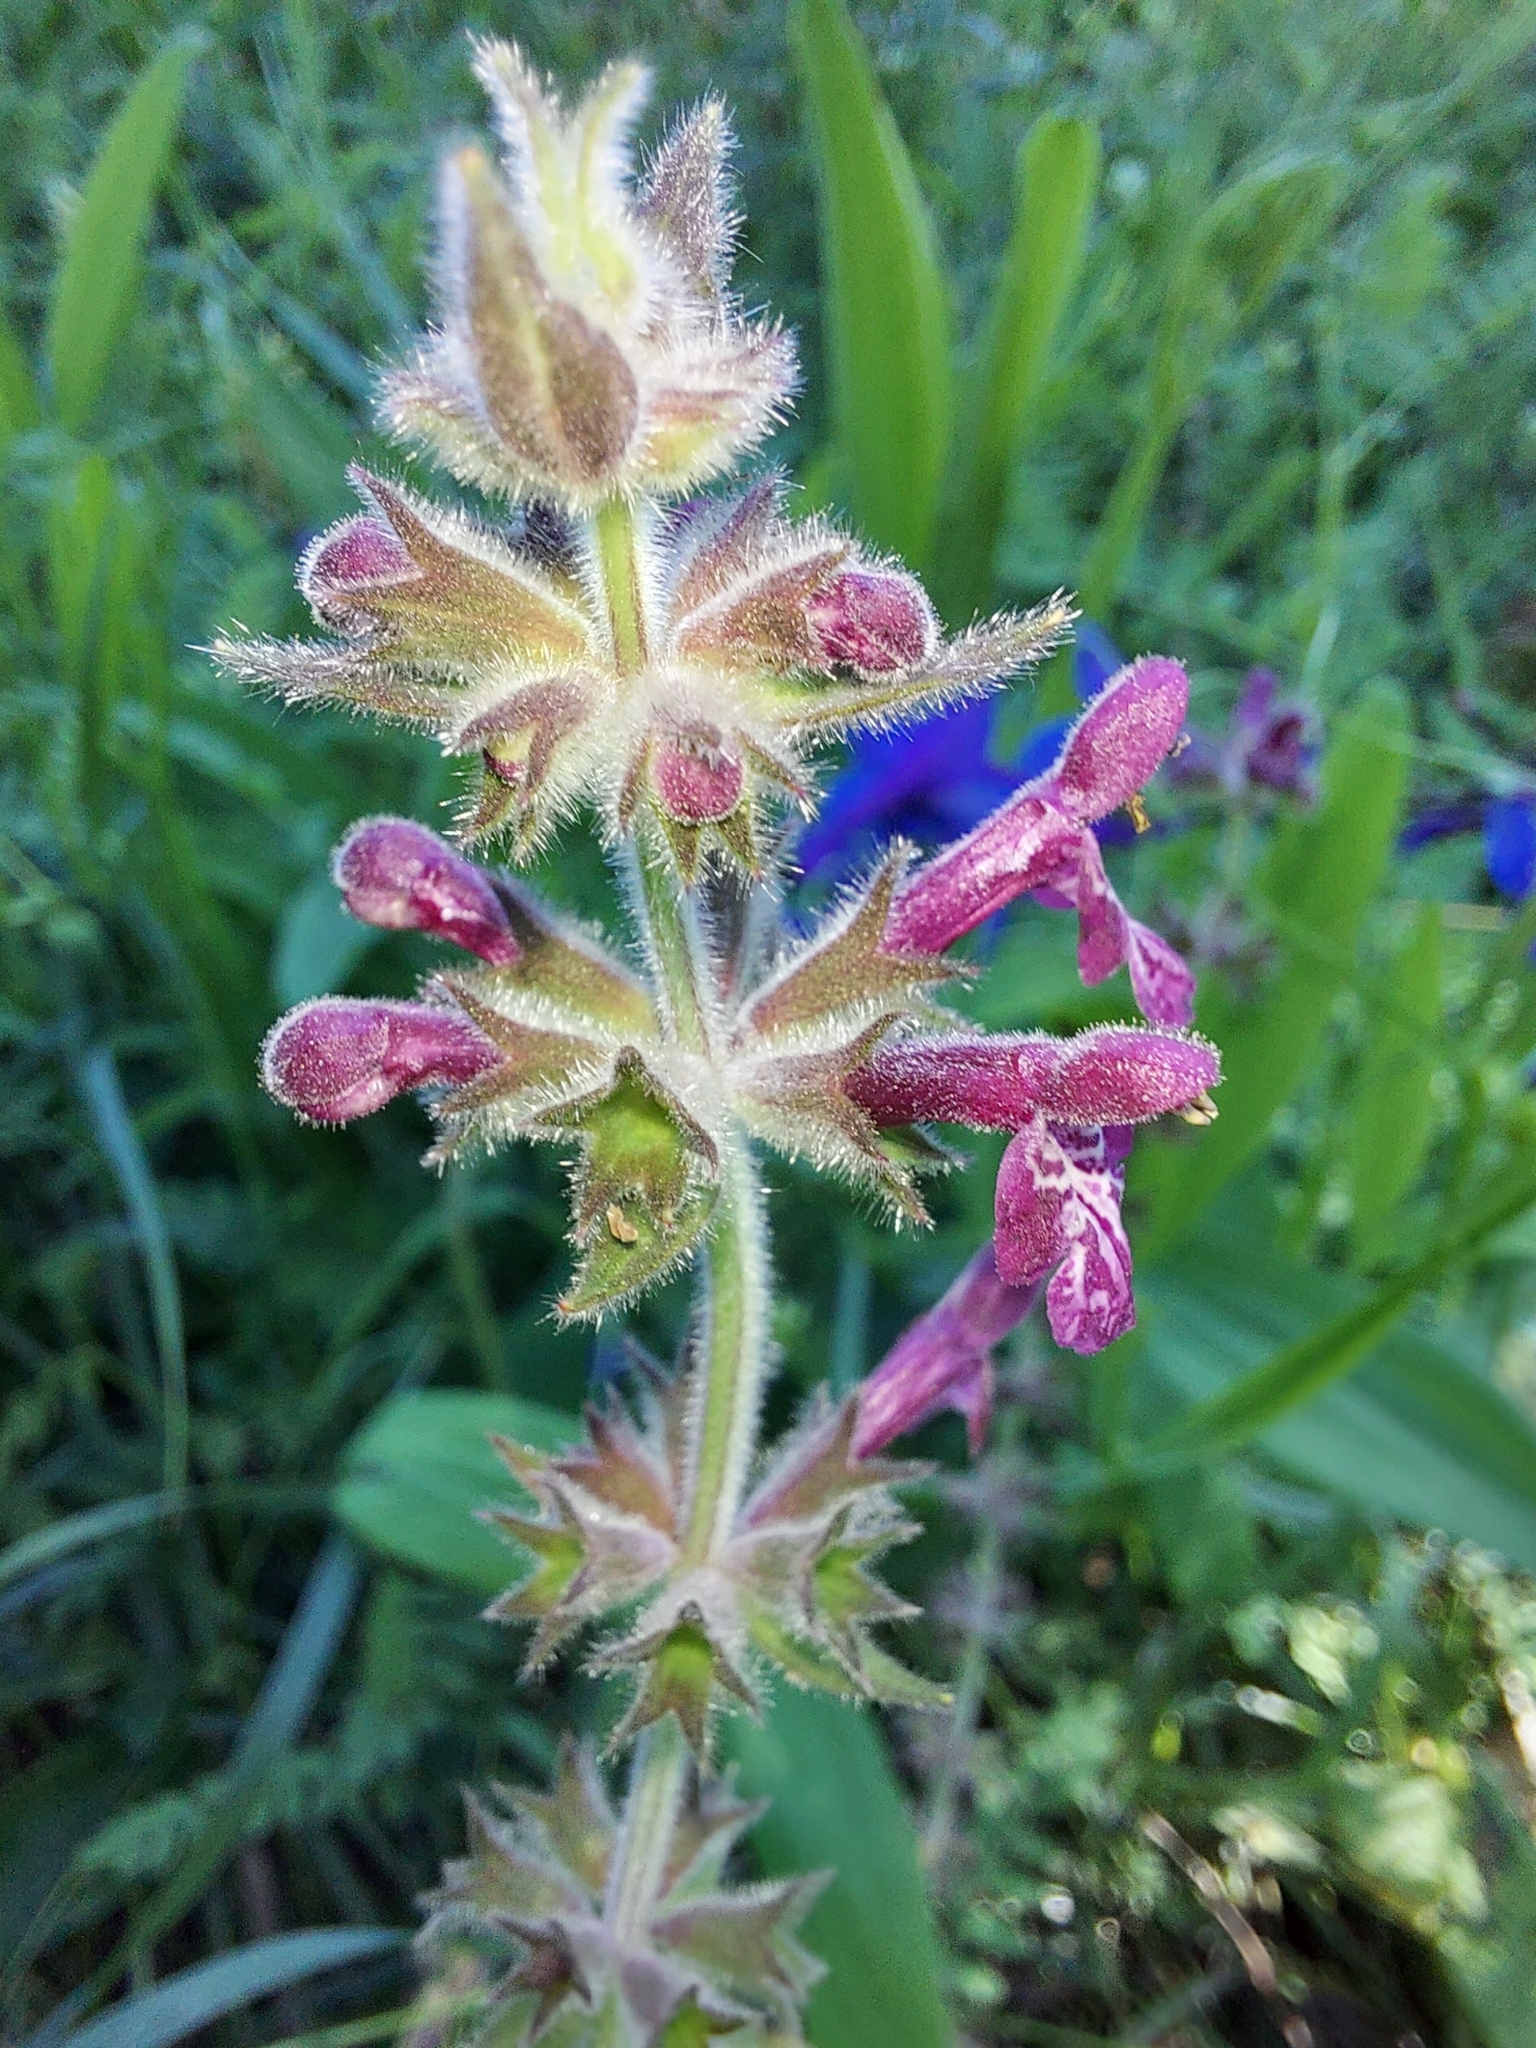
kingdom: Plantae
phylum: Tracheophyta
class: Magnoliopsida
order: Lamiales
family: Lamiaceae
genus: Stachys
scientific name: Stachys sylvatica
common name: Hedge woundwort
